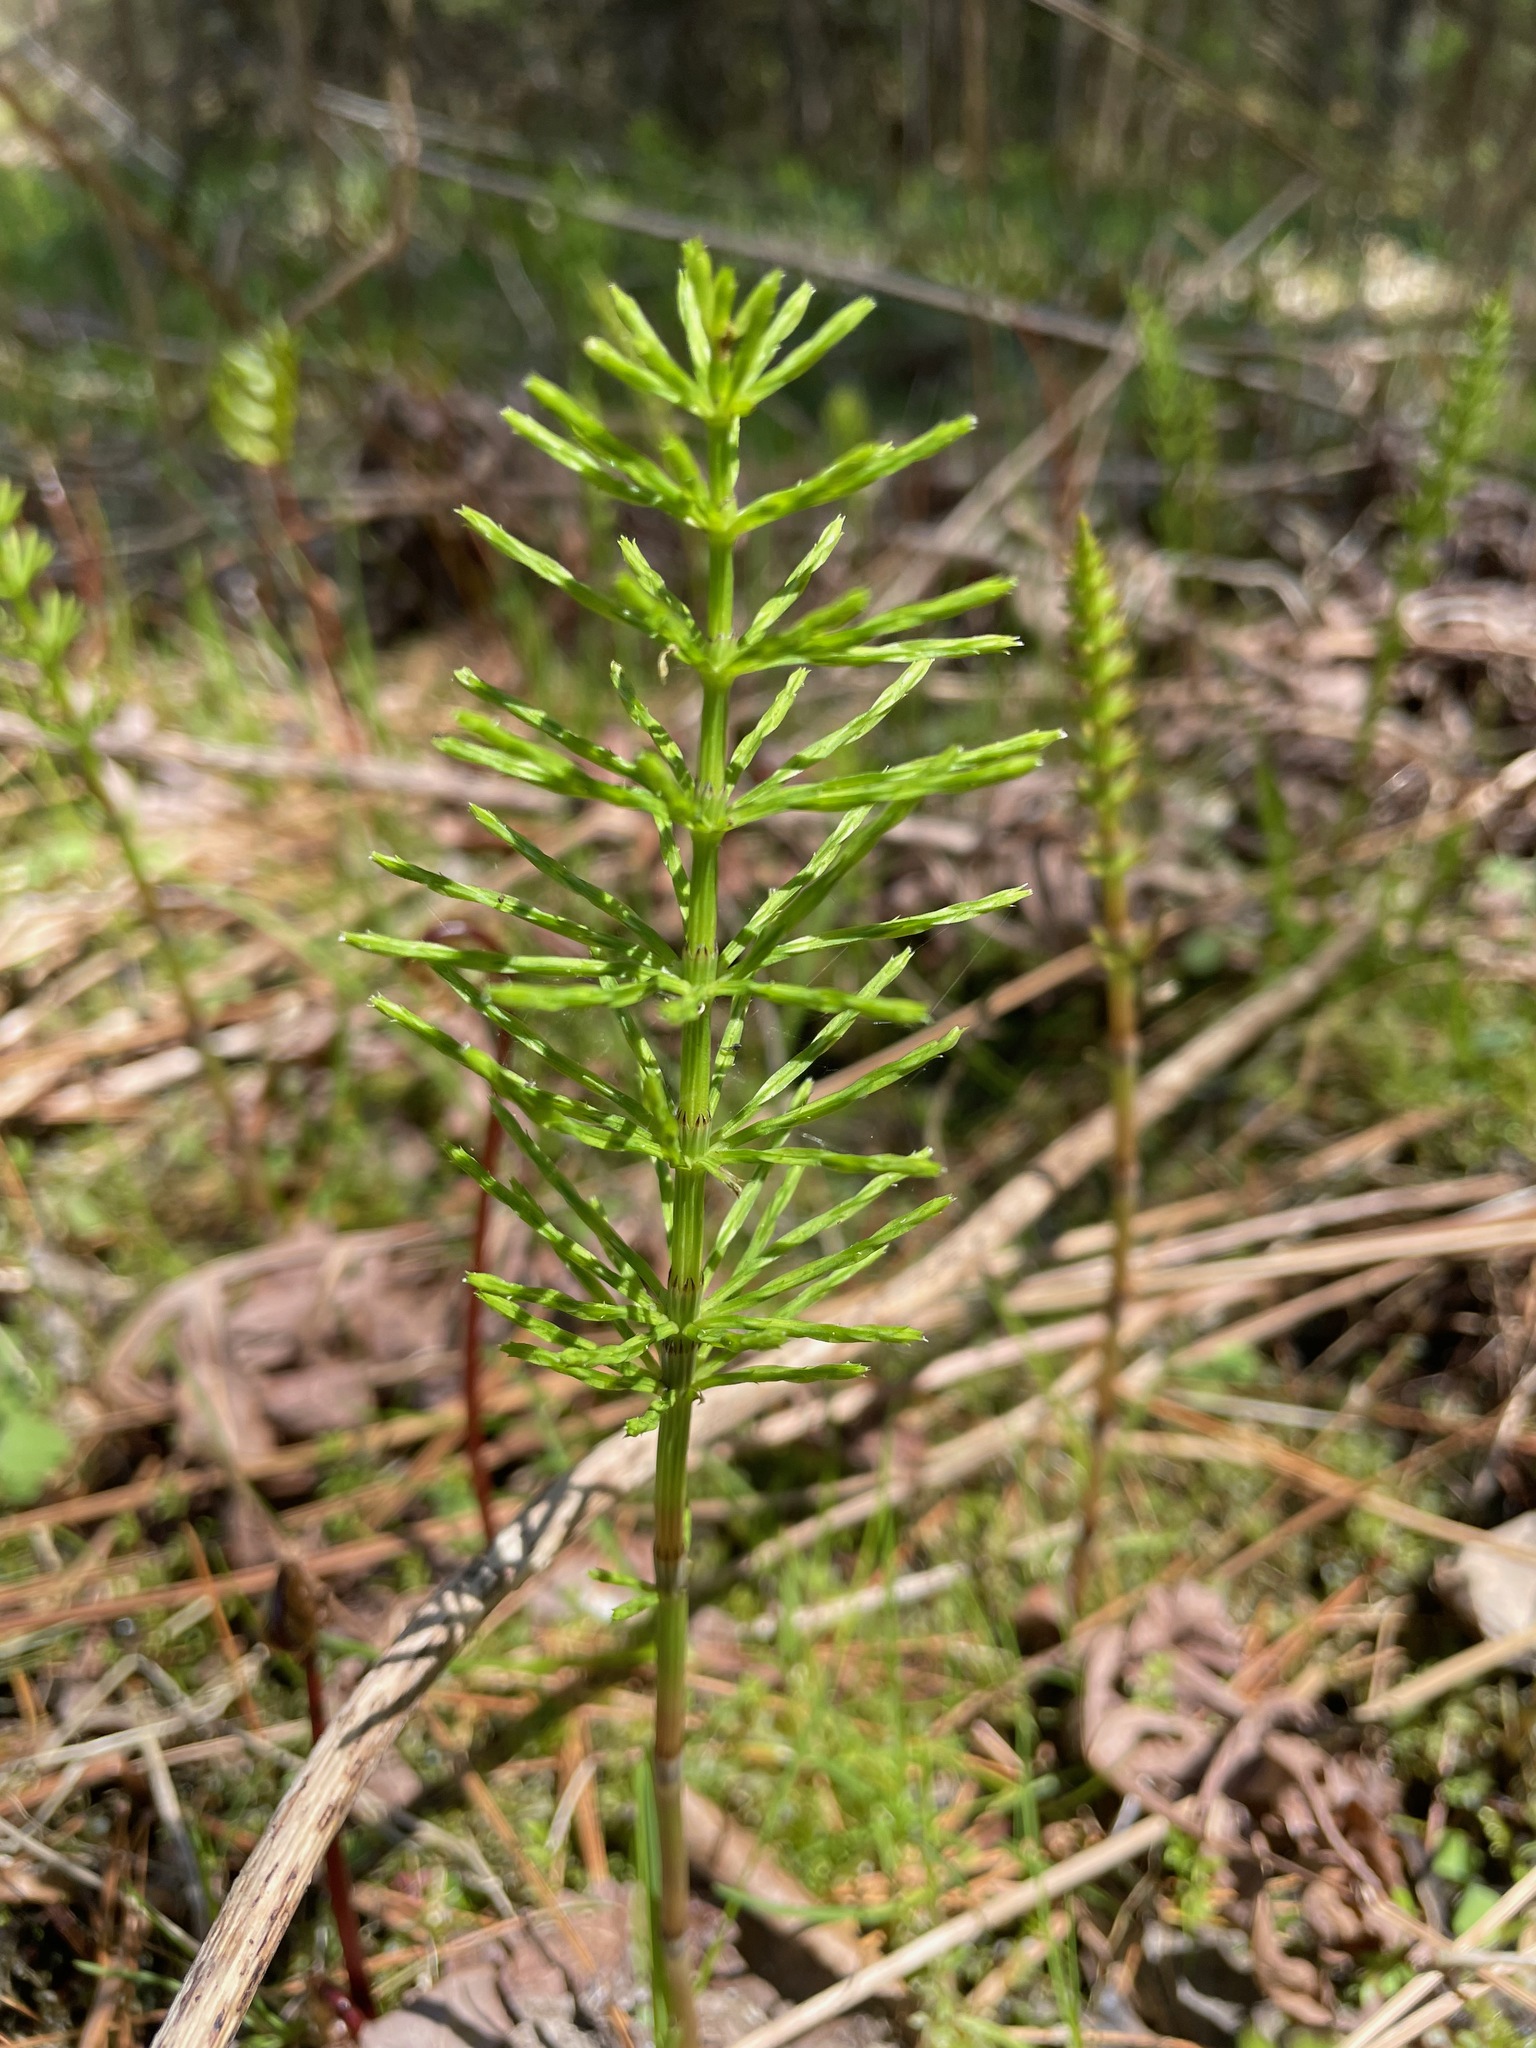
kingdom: Plantae
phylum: Tracheophyta
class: Polypodiopsida
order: Equisetales
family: Equisetaceae
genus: Equisetum
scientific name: Equisetum arvense
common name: Field horsetail
